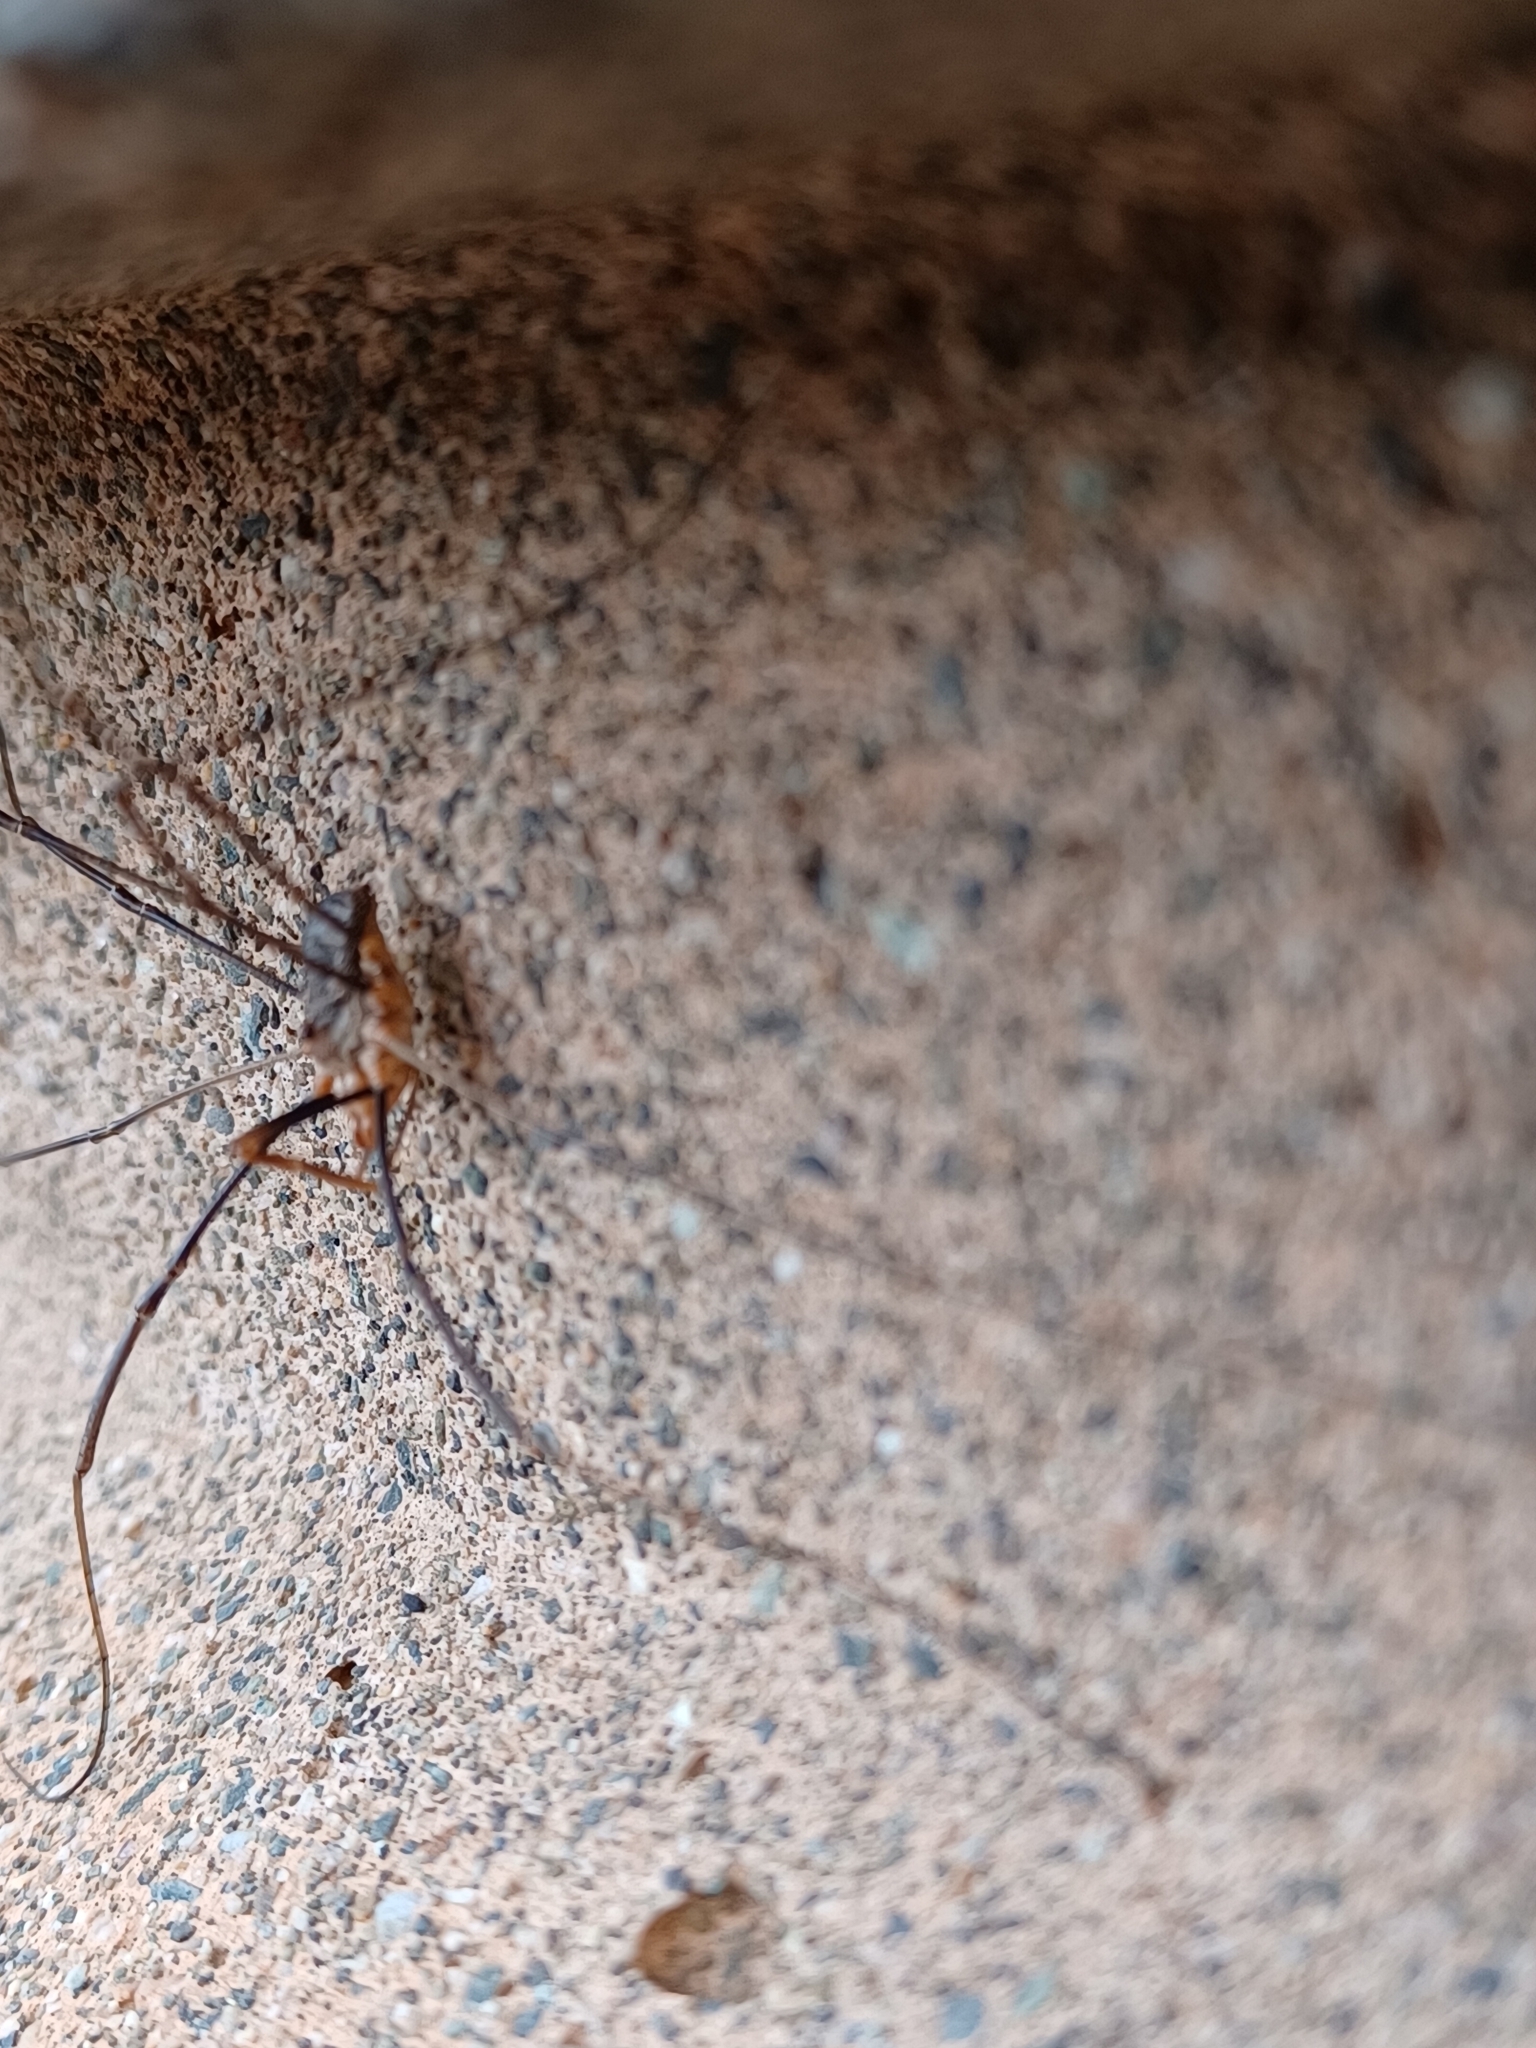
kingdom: Animalia
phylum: Arthropoda
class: Arachnida
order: Opiliones
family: Phalangiidae
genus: Phalangium
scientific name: Phalangium opilio
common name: Daddy longleg
